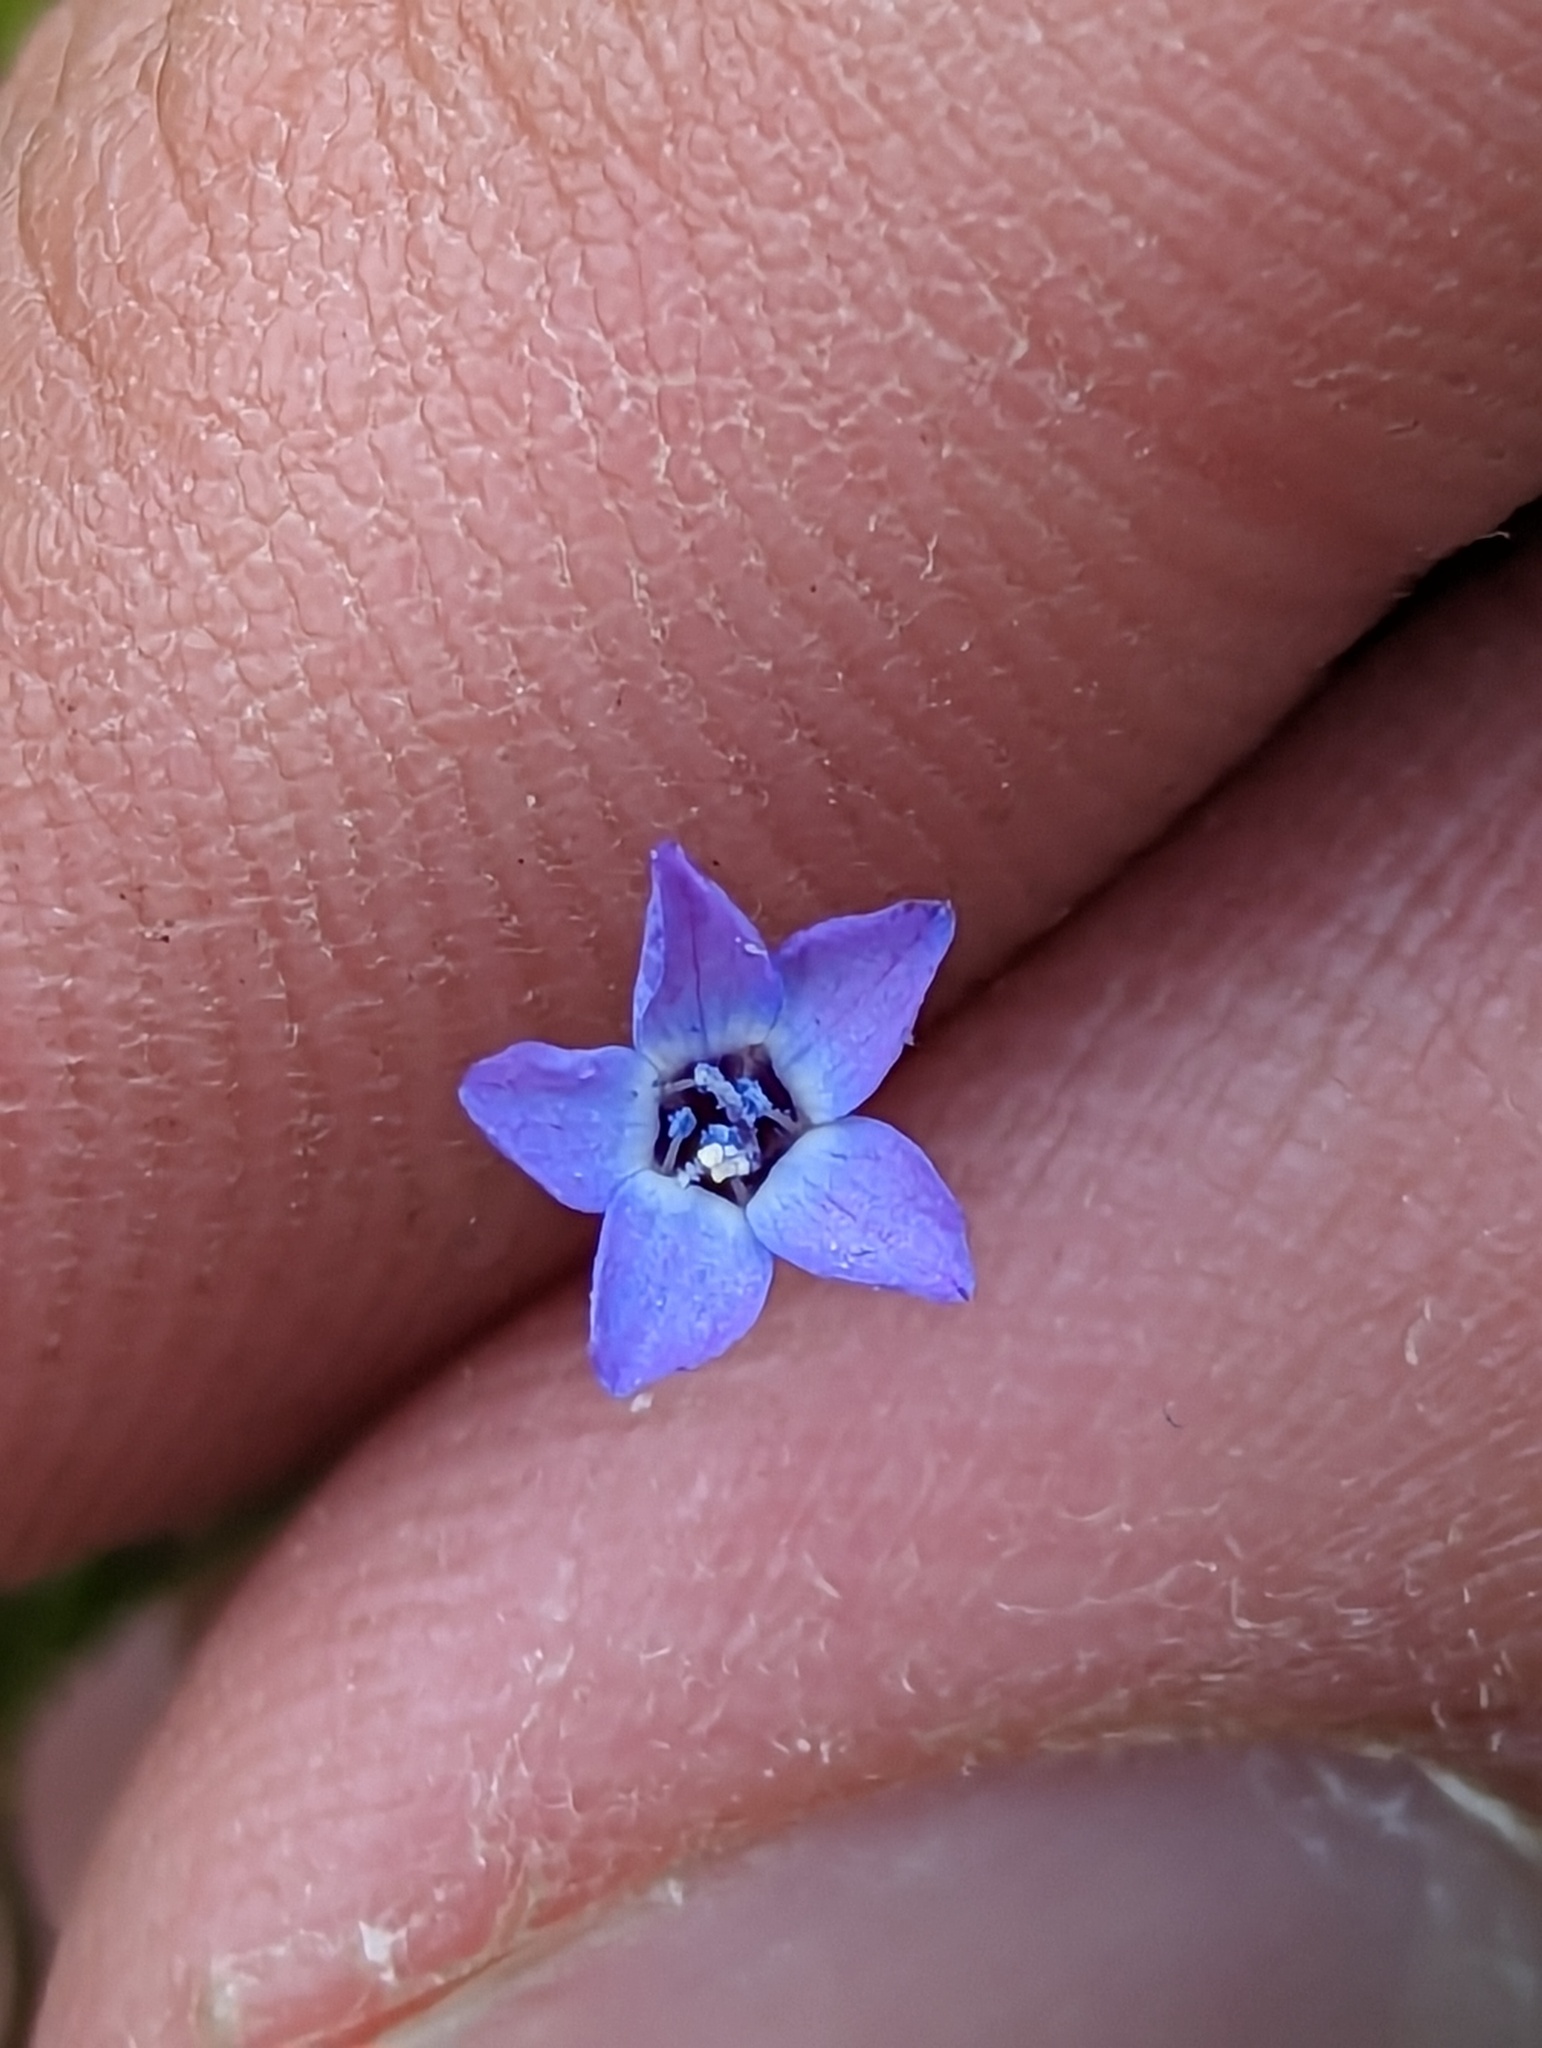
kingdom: Plantae
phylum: Tracheophyta
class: Magnoliopsida
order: Ericales
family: Polemoniaceae
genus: Gilia
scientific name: Gilia clivorum
